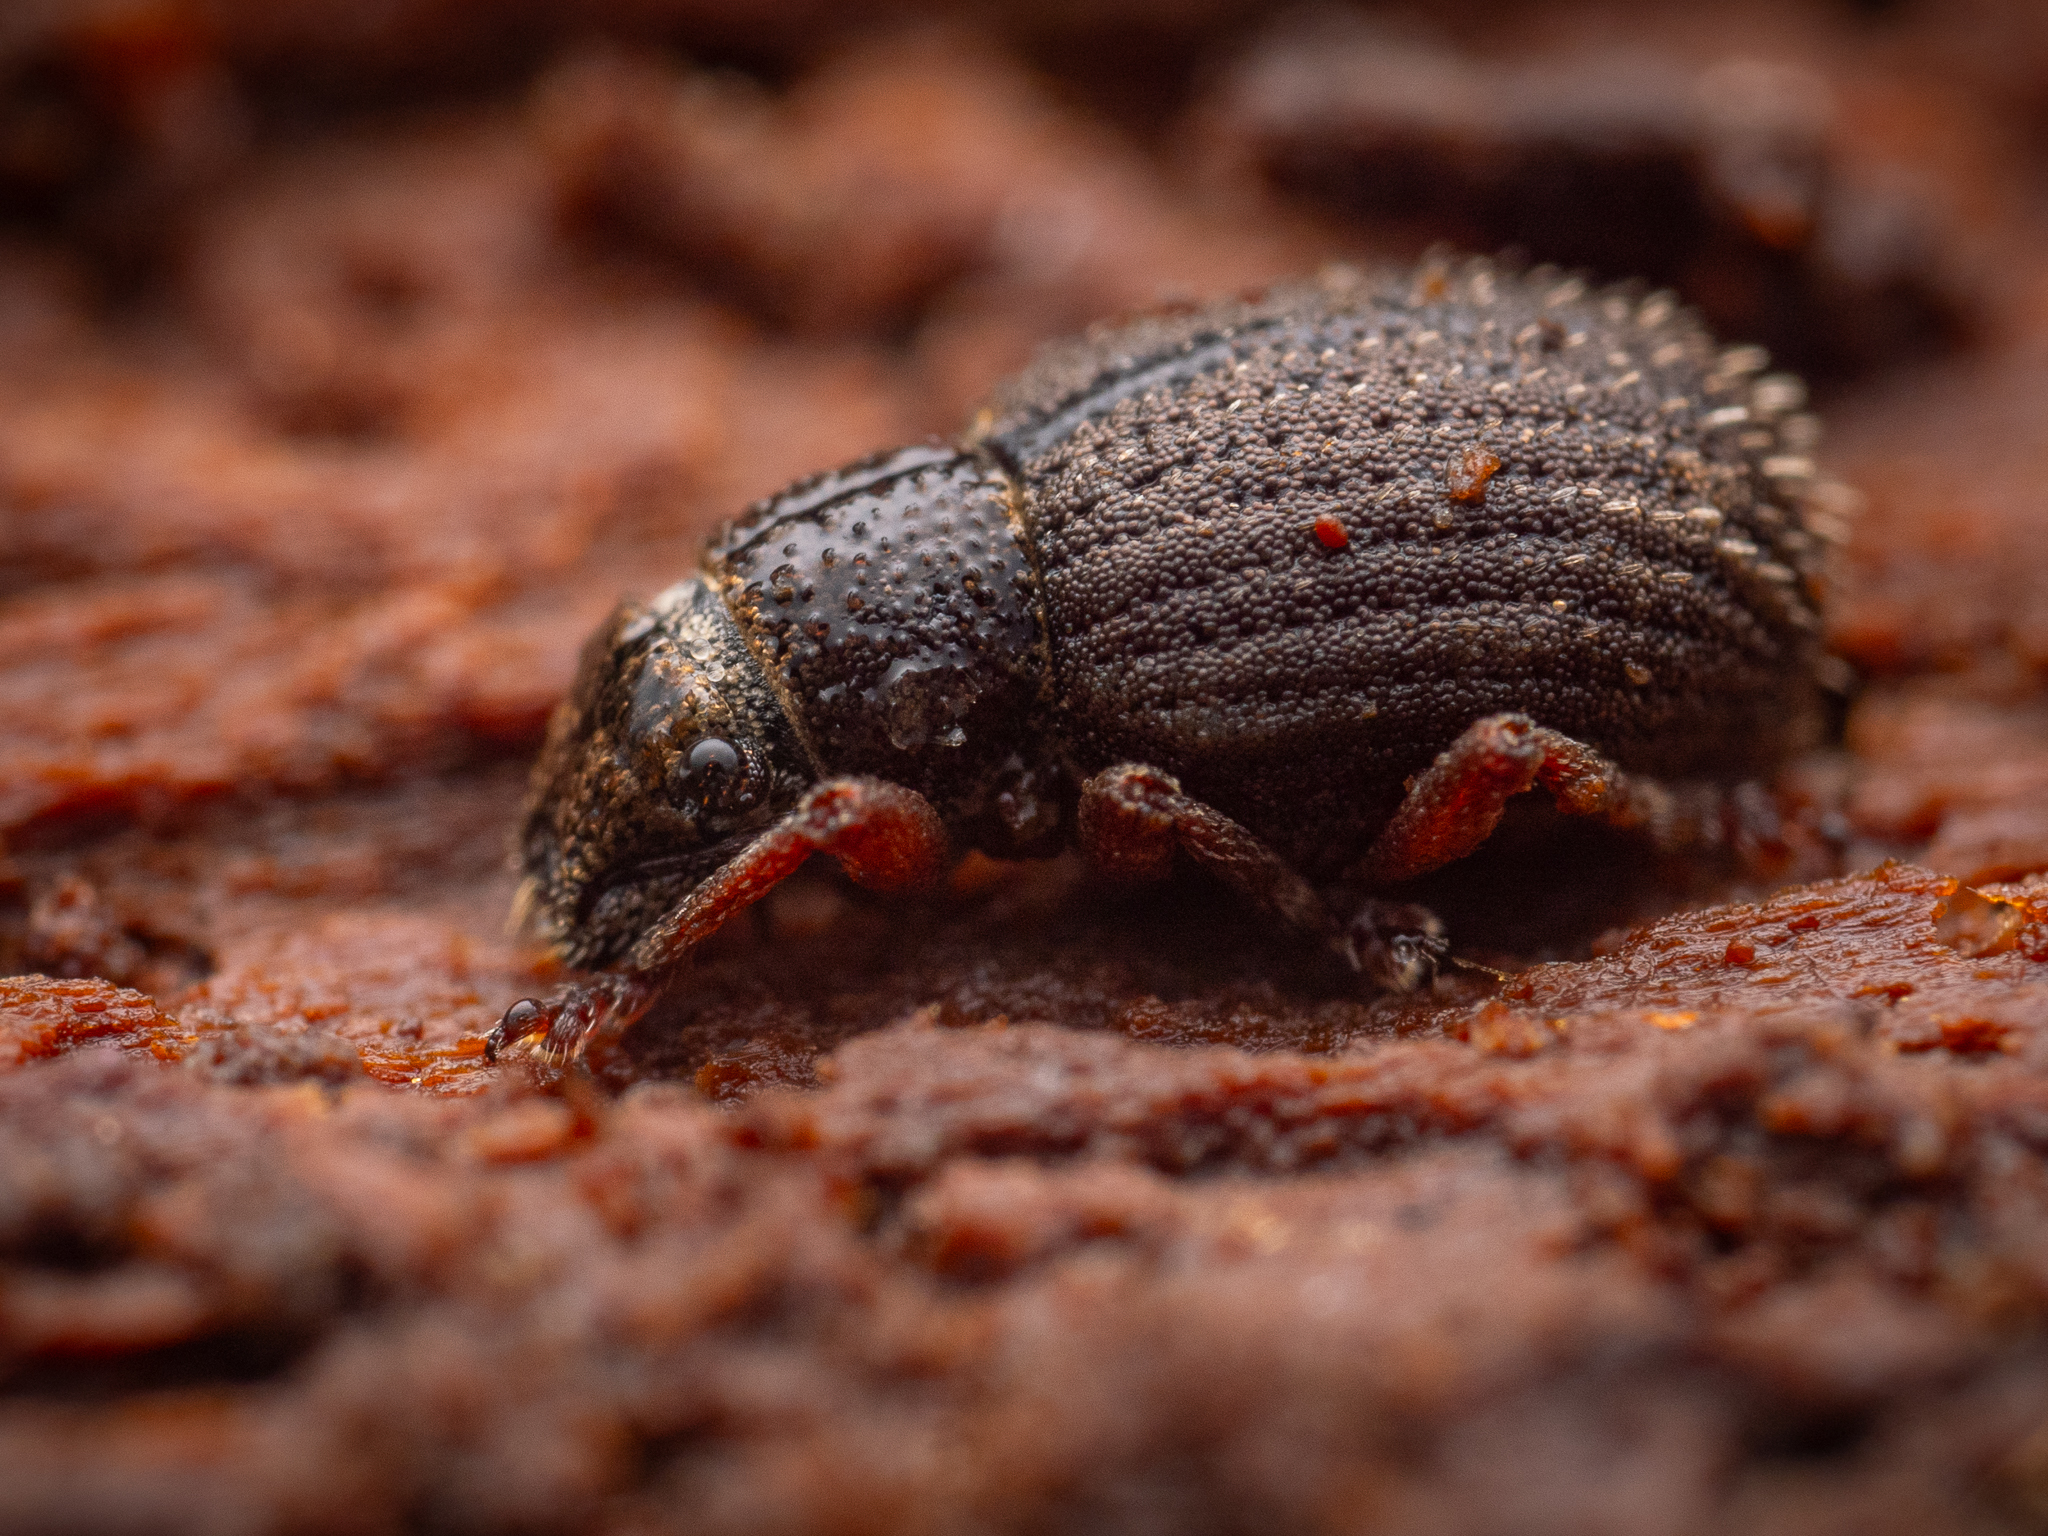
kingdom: Animalia
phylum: Arthropoda
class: Insecta
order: Coleoptera
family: Curculionidae
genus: Strophosoma
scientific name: Strophosoma melanogrammum
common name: Weevil
